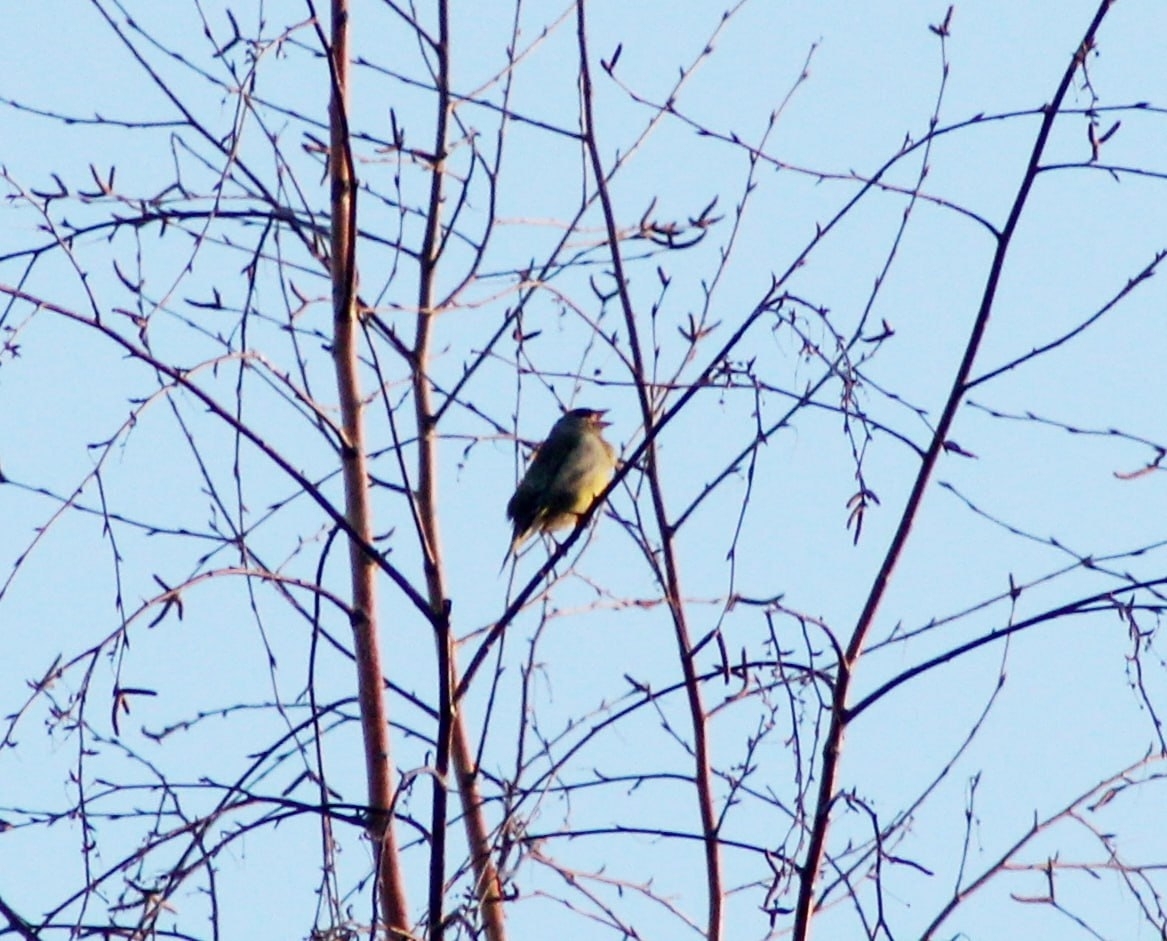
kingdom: Plantae
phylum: Tracheophyta
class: Liliopsida
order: Poales
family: Poaceae
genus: Chloris
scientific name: Chloris chloris
